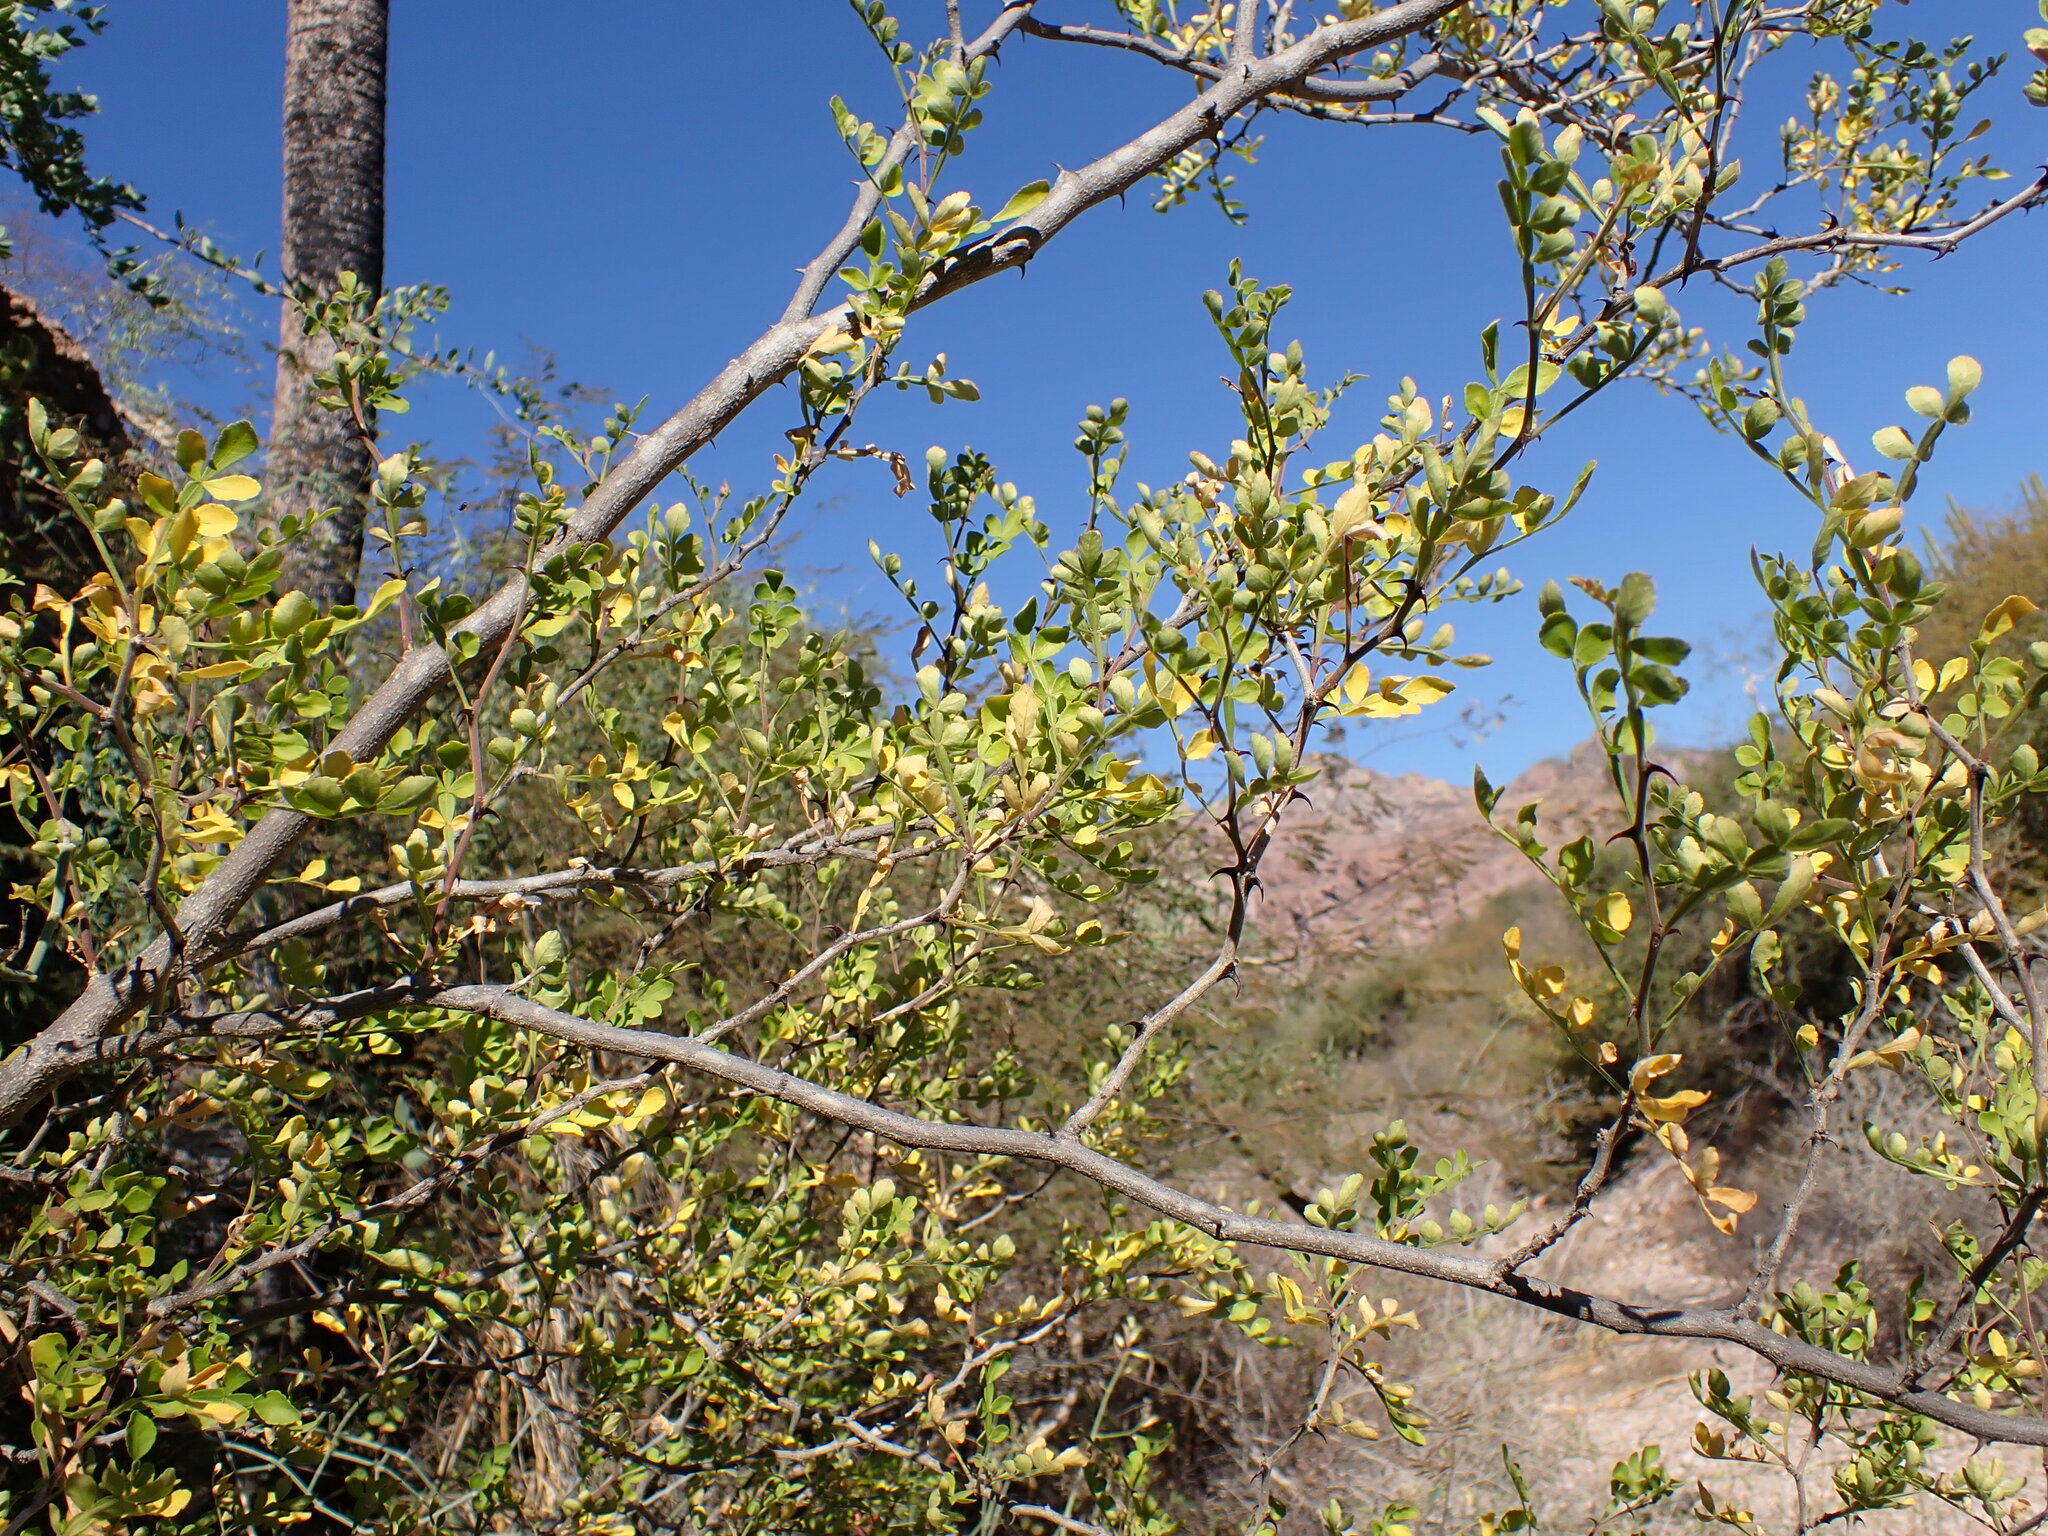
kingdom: Plantae
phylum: Tracheophyta
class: Magnoliopsida
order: Sapindales
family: Rutaceae
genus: Zanthoxylum
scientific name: Zanthoxylum fagara
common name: Lime prickly-ash
